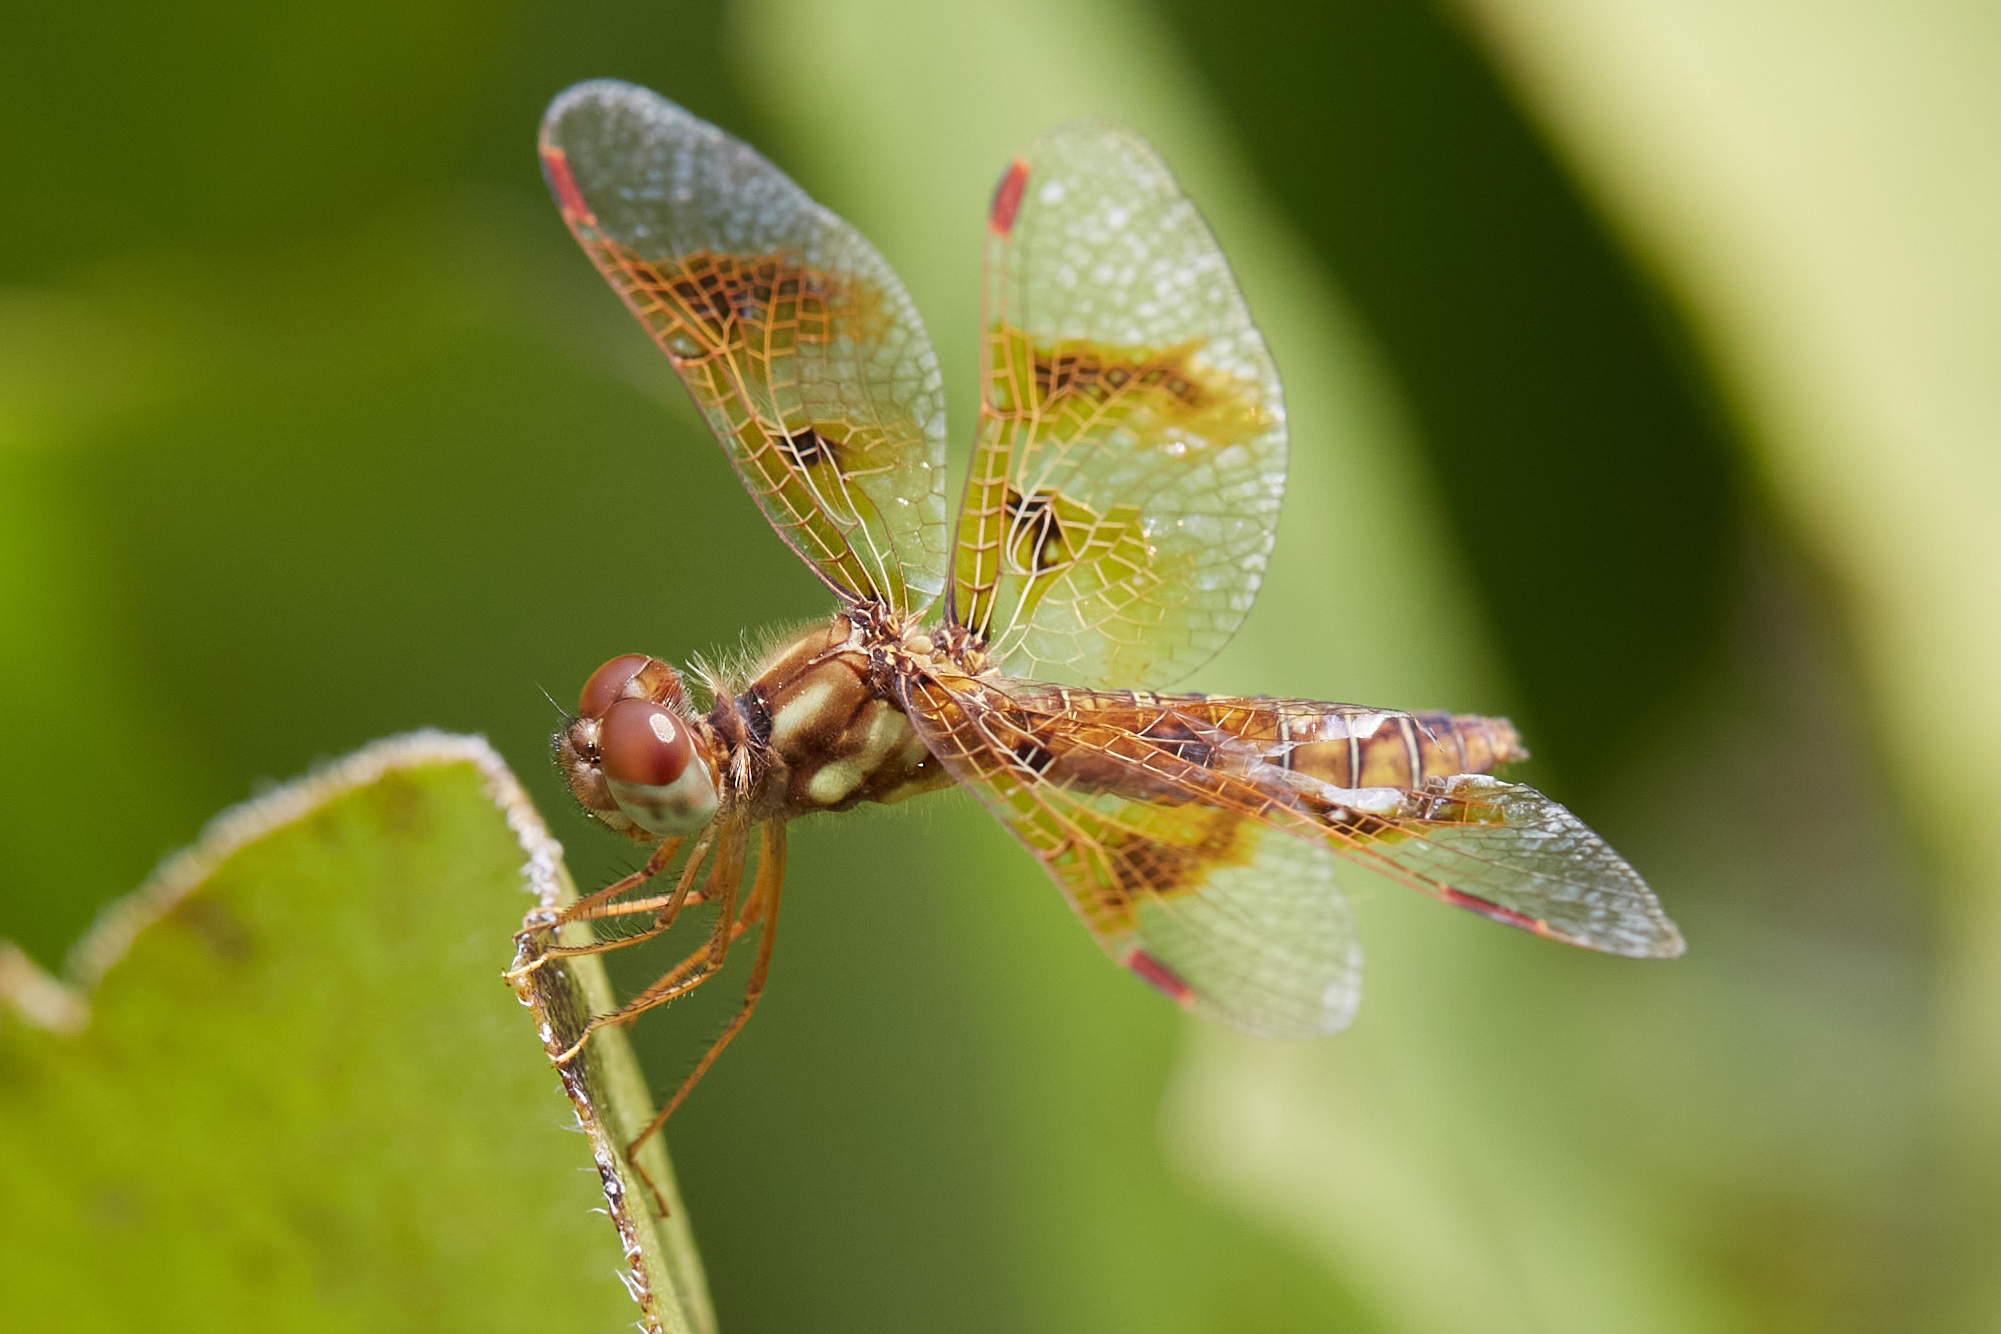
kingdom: Animalia
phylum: Arthropoda
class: Insecta
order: Odonata
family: Libellulidae
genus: Perithemis
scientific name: Perithemis tenera
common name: Eastern amberwing
